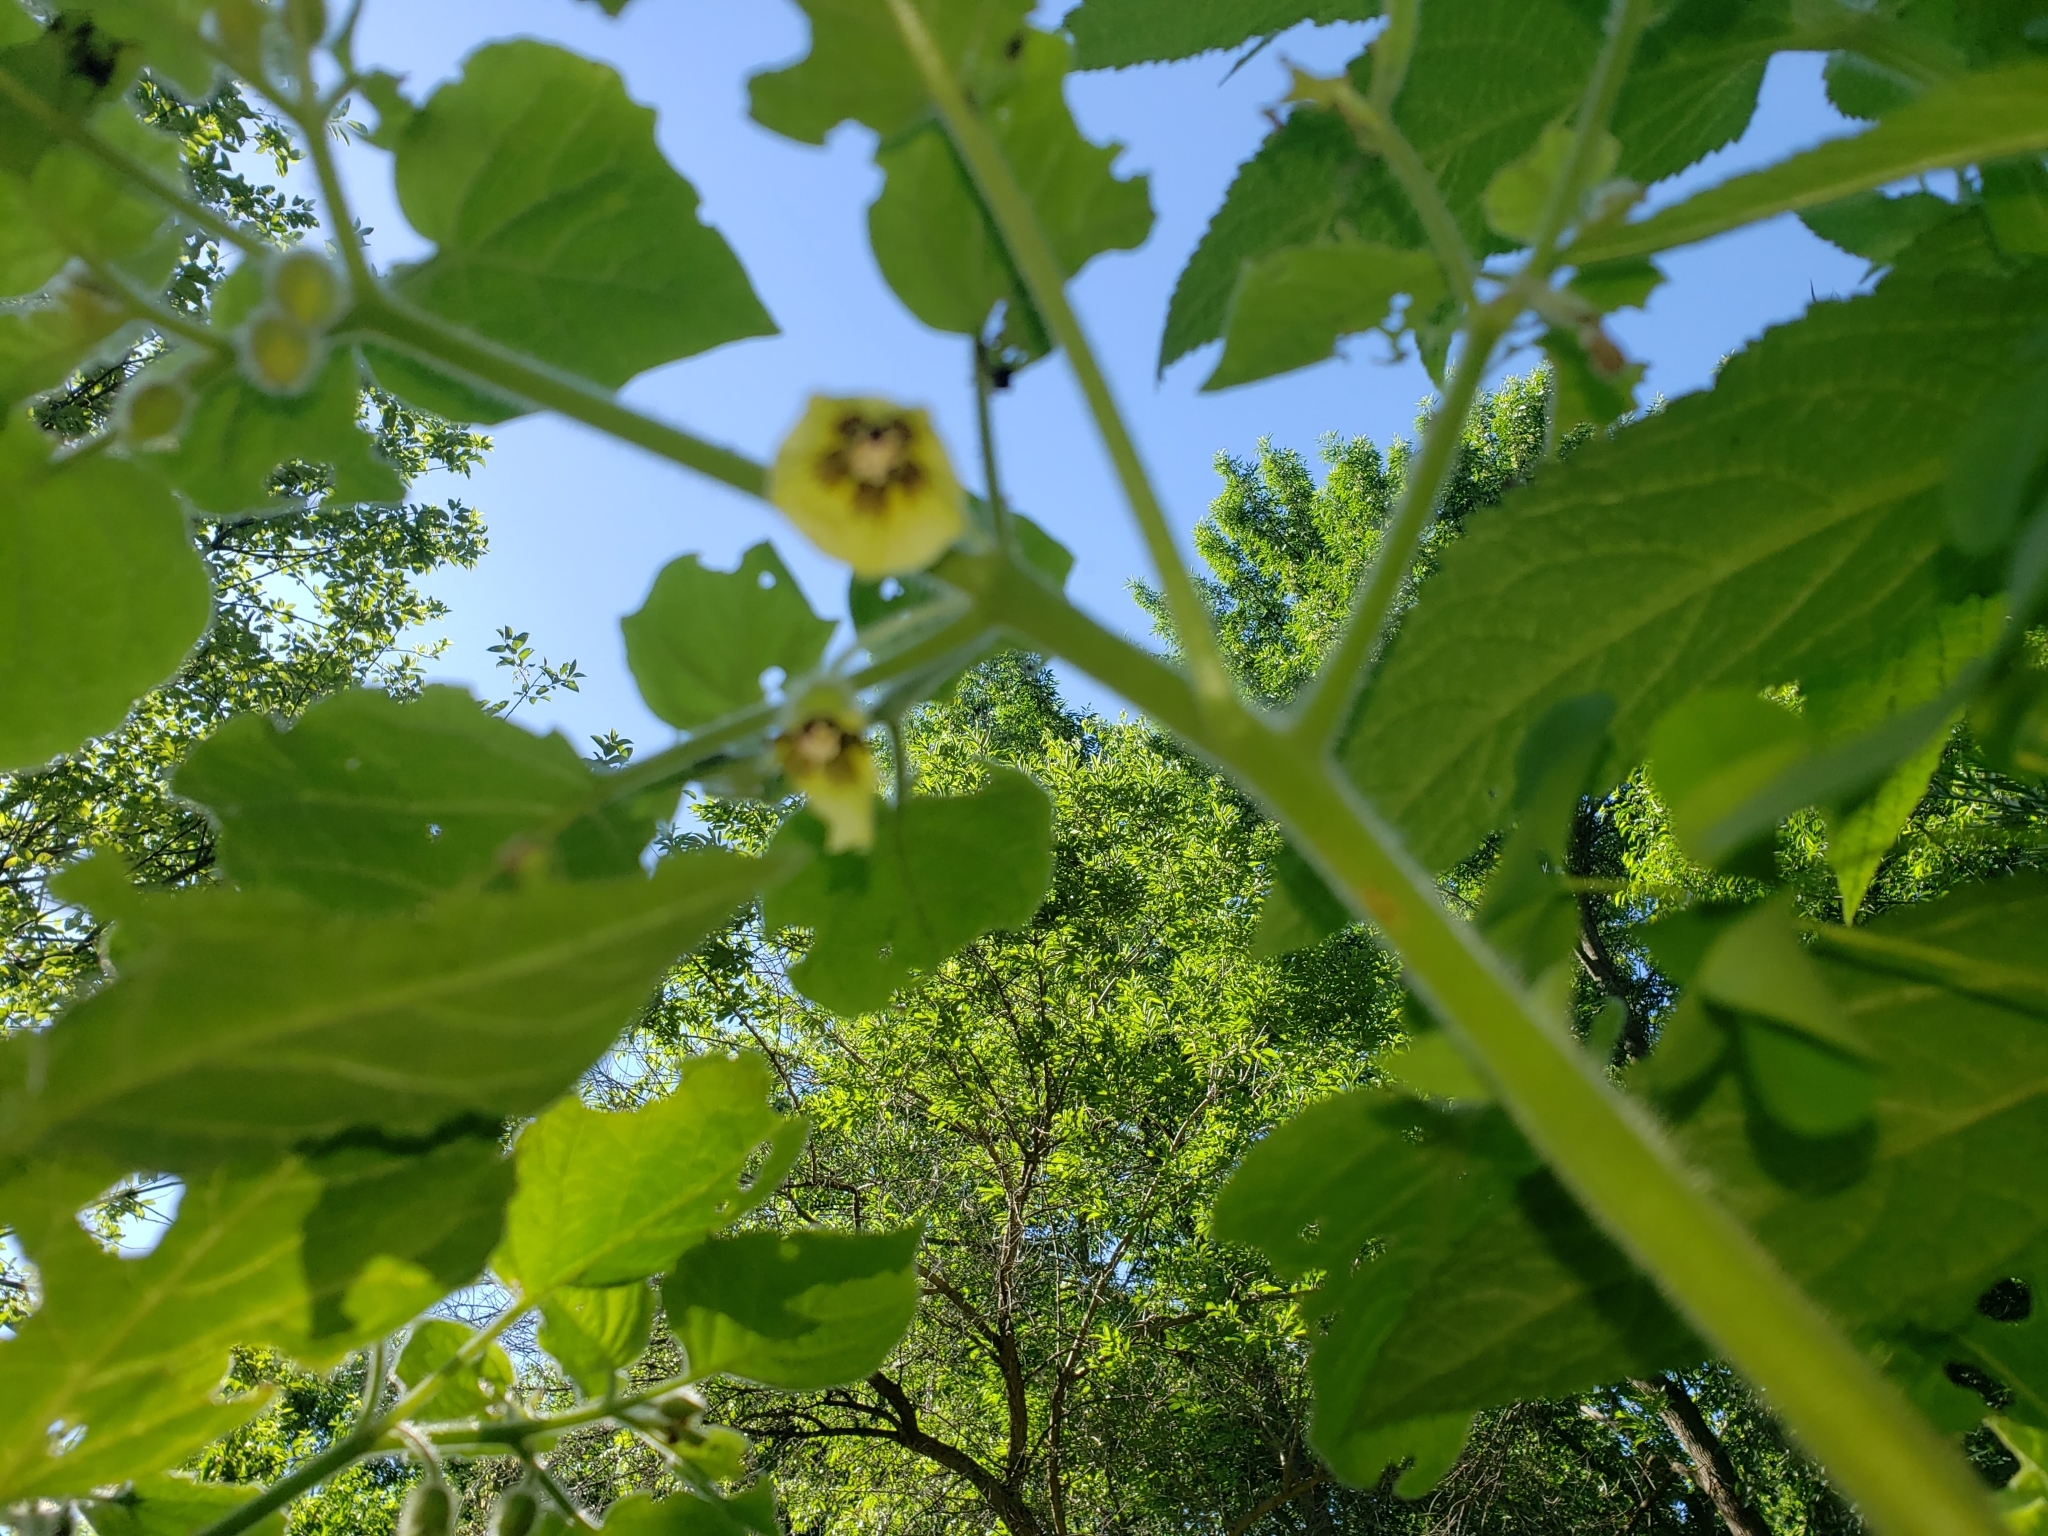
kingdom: Plantae
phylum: Tracheophyta
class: Magnoliopsida
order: Solanales
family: Solanaceae
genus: Physalis
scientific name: Physalis heterophylla
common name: Clammy ground-cherry
